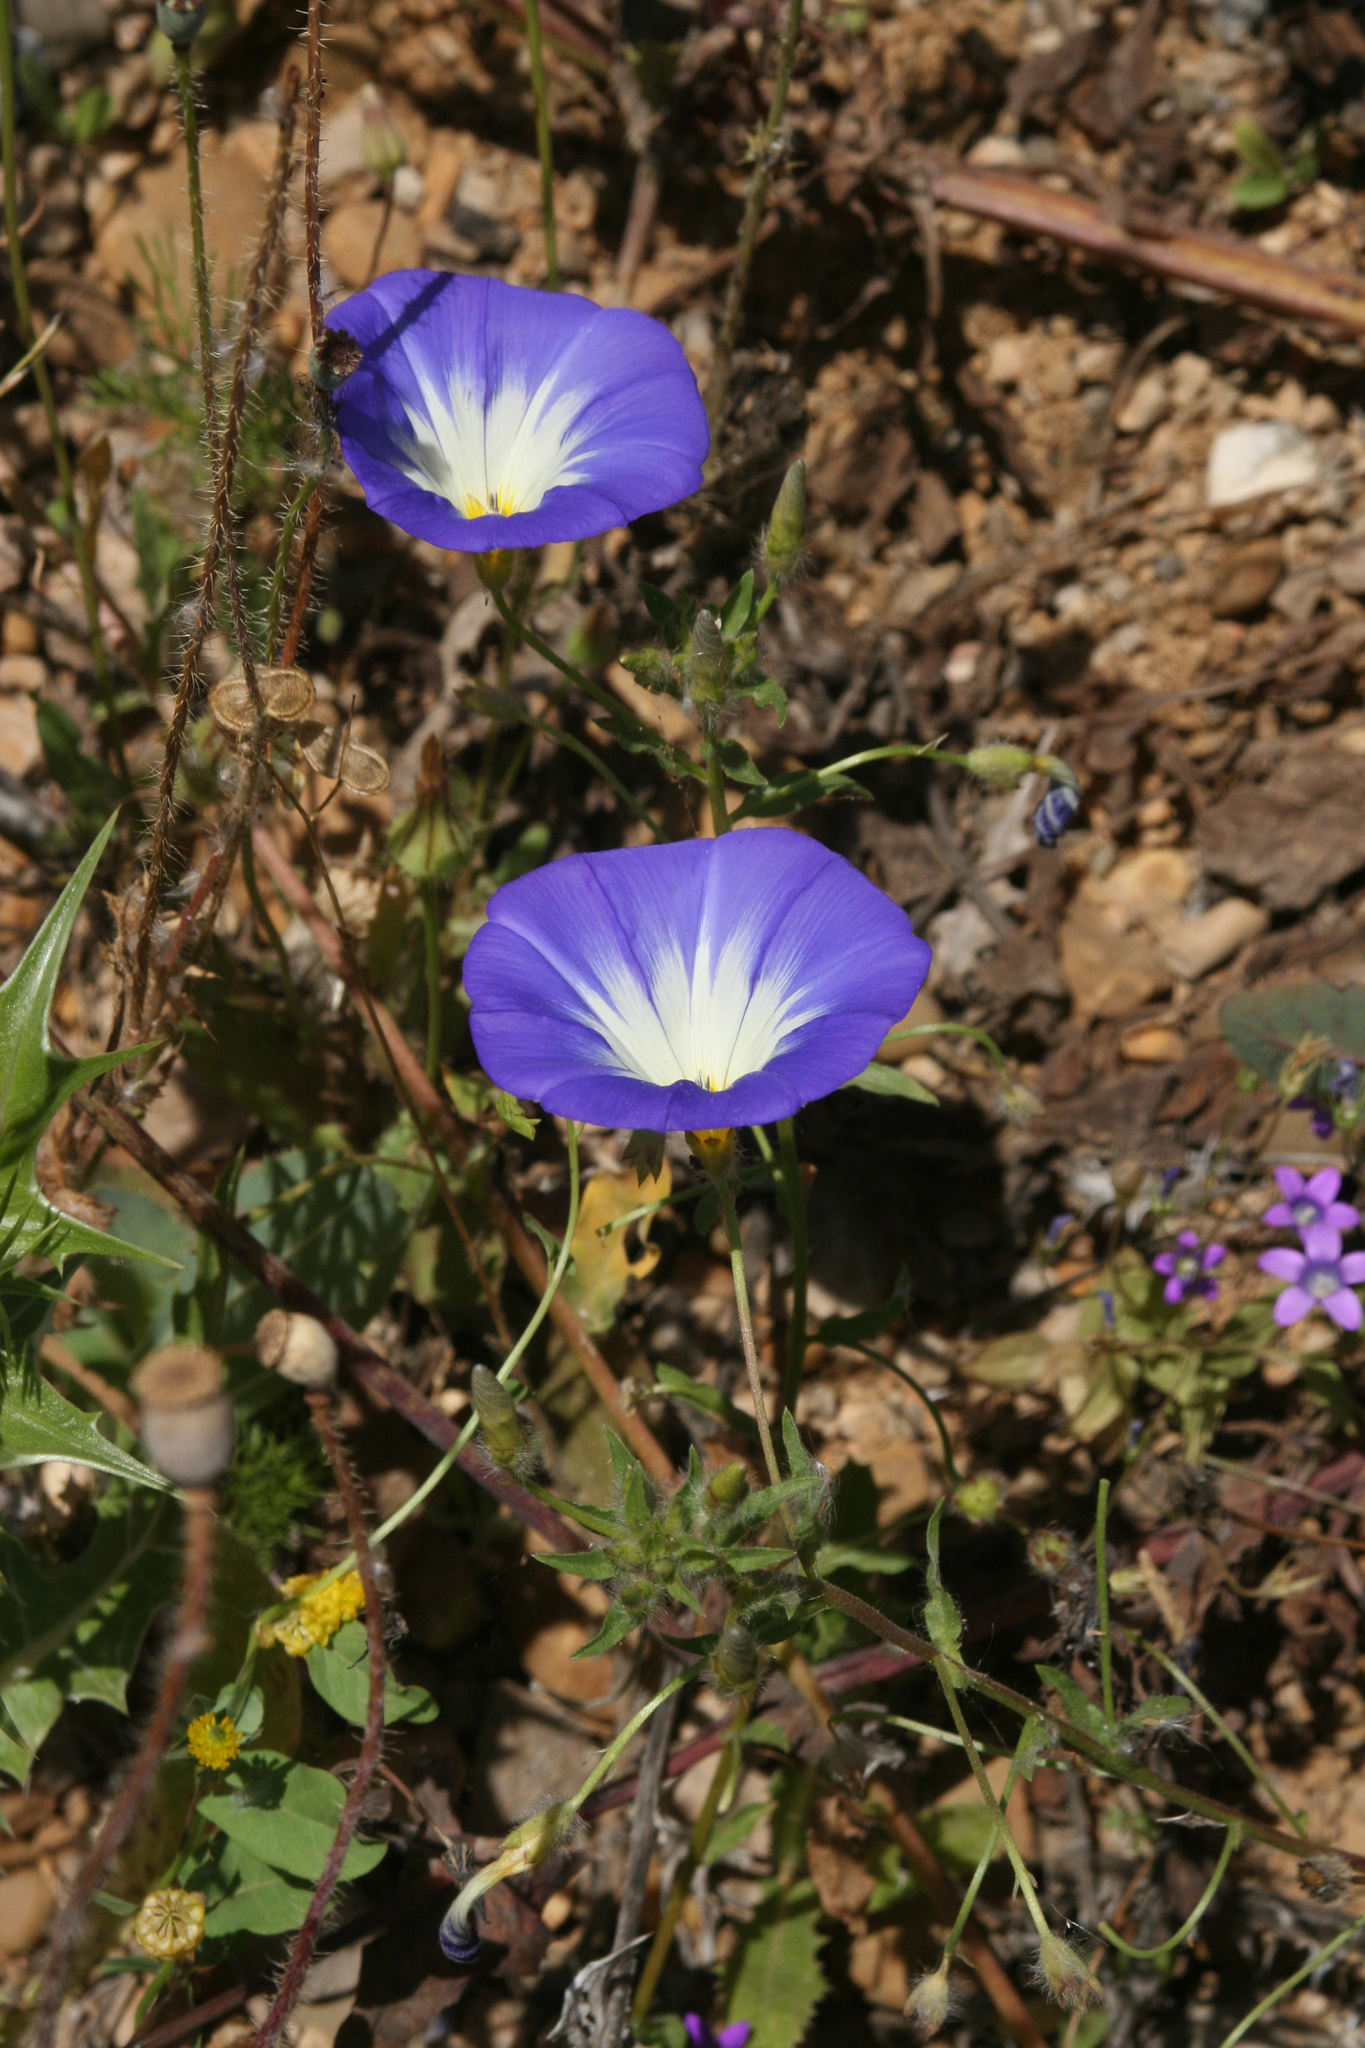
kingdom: Plantae
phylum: Tracheophyta
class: Magnoliopsida
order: Solanales
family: Convolvulaceae
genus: Convolvulus
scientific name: Convolvulus tricolor
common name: Dwarf morning-glory
